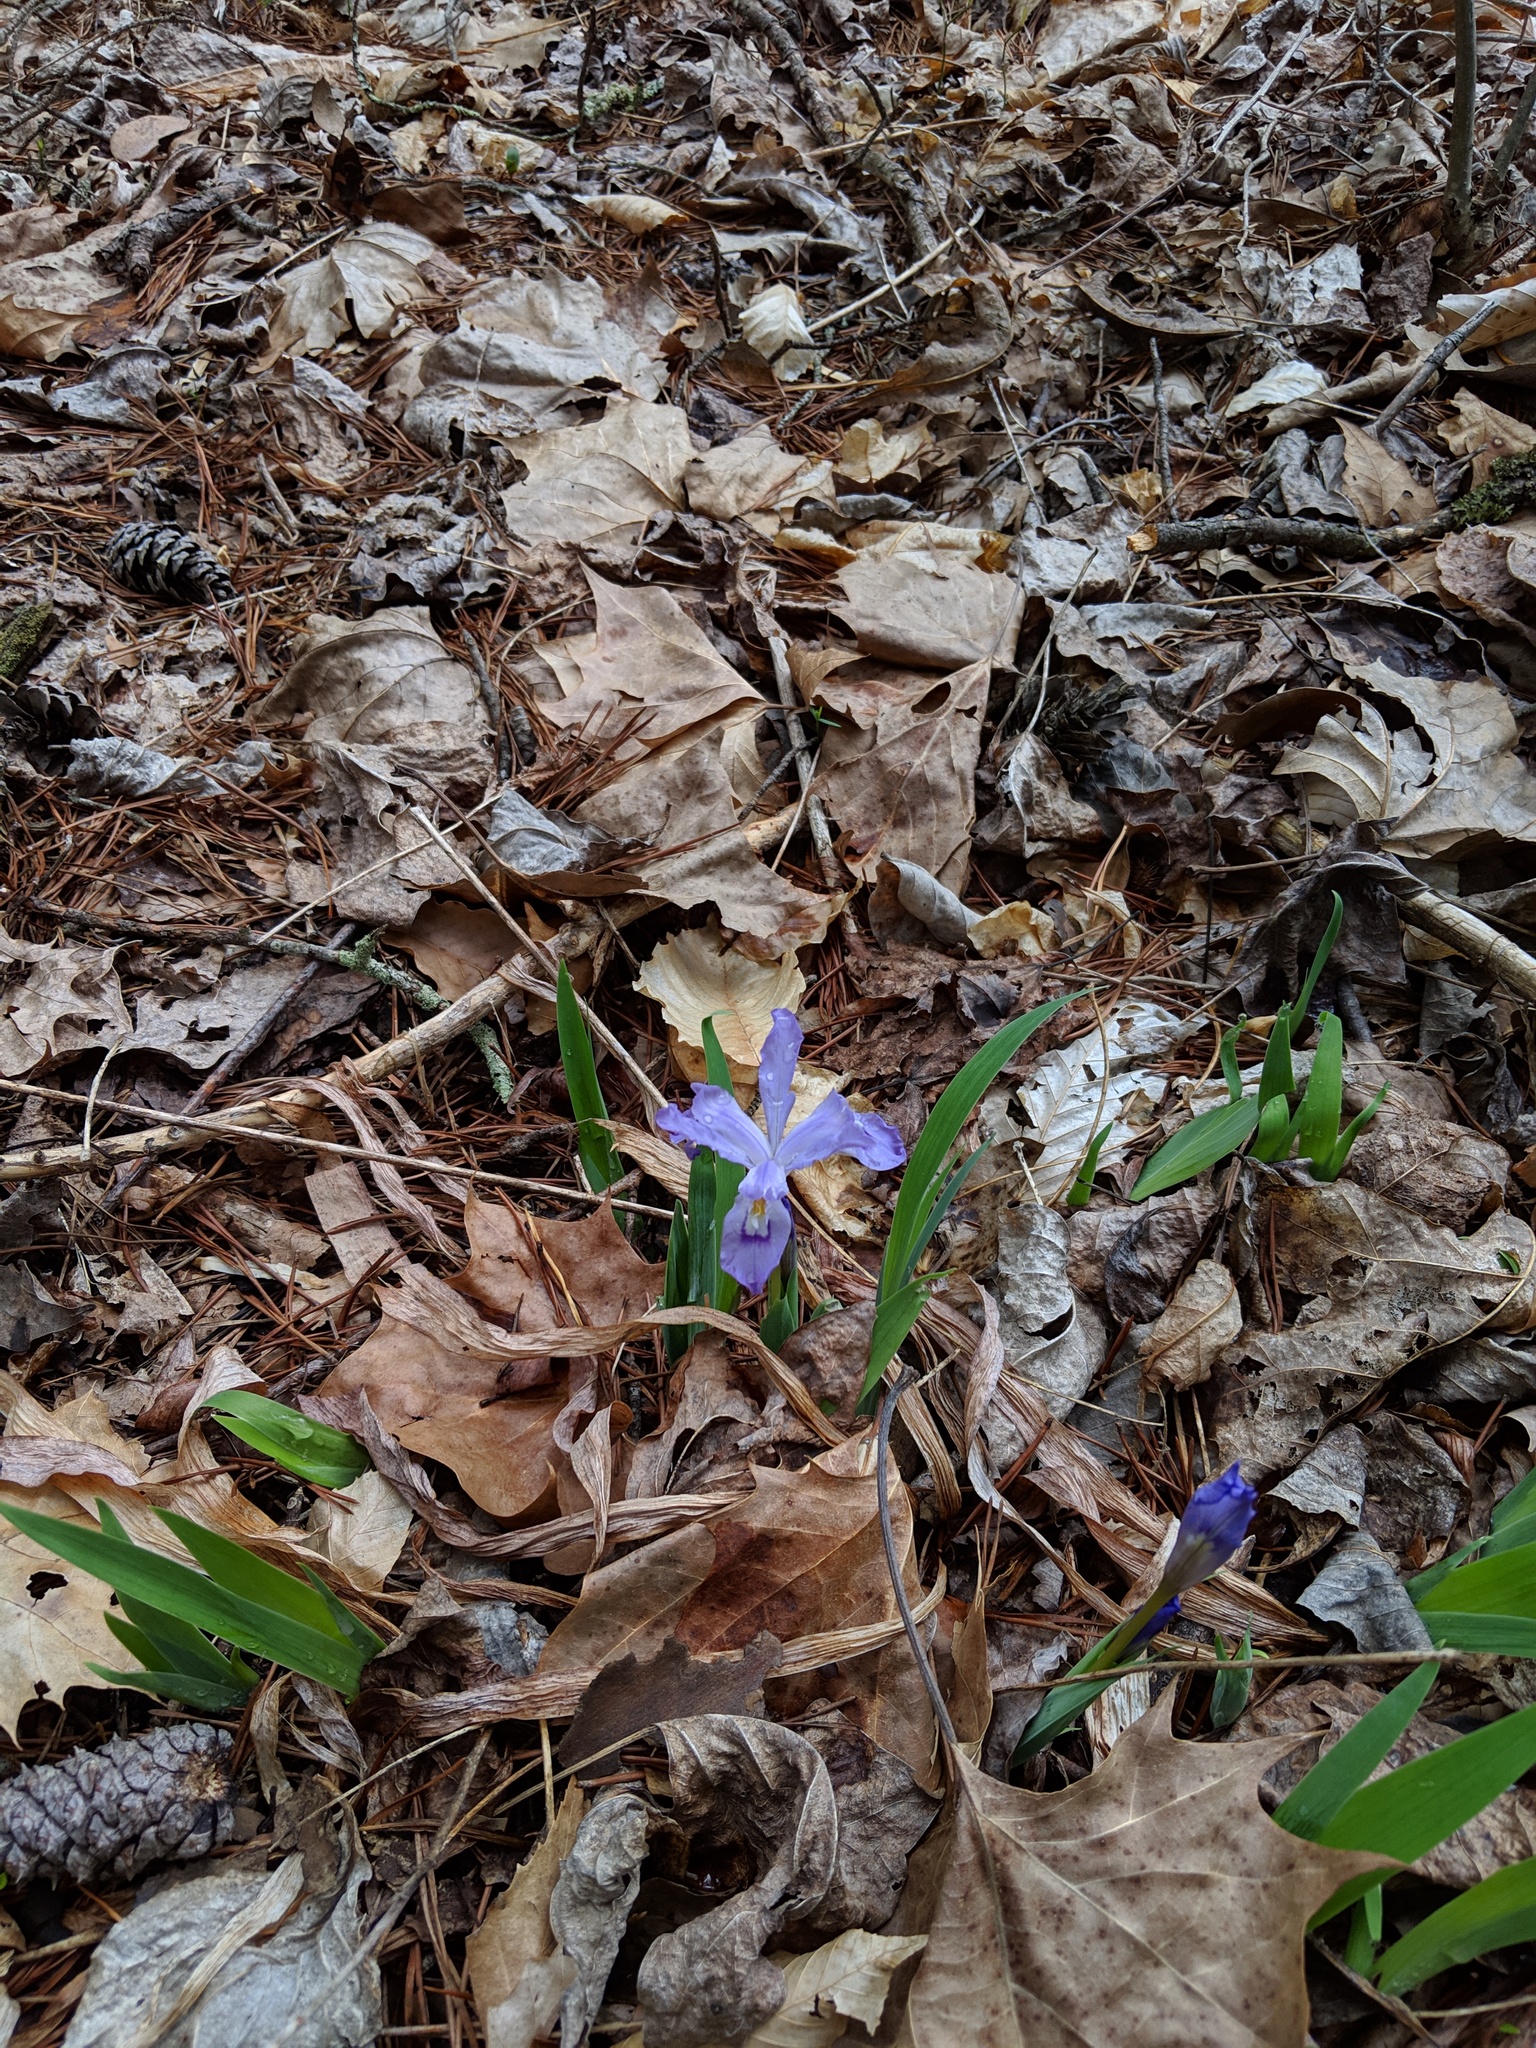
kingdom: Plantae
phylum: Tracheophyta
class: Liliopsida
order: Asparagales
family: Iridaceae
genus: Iris
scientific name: Iris cristata
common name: Crested iris
